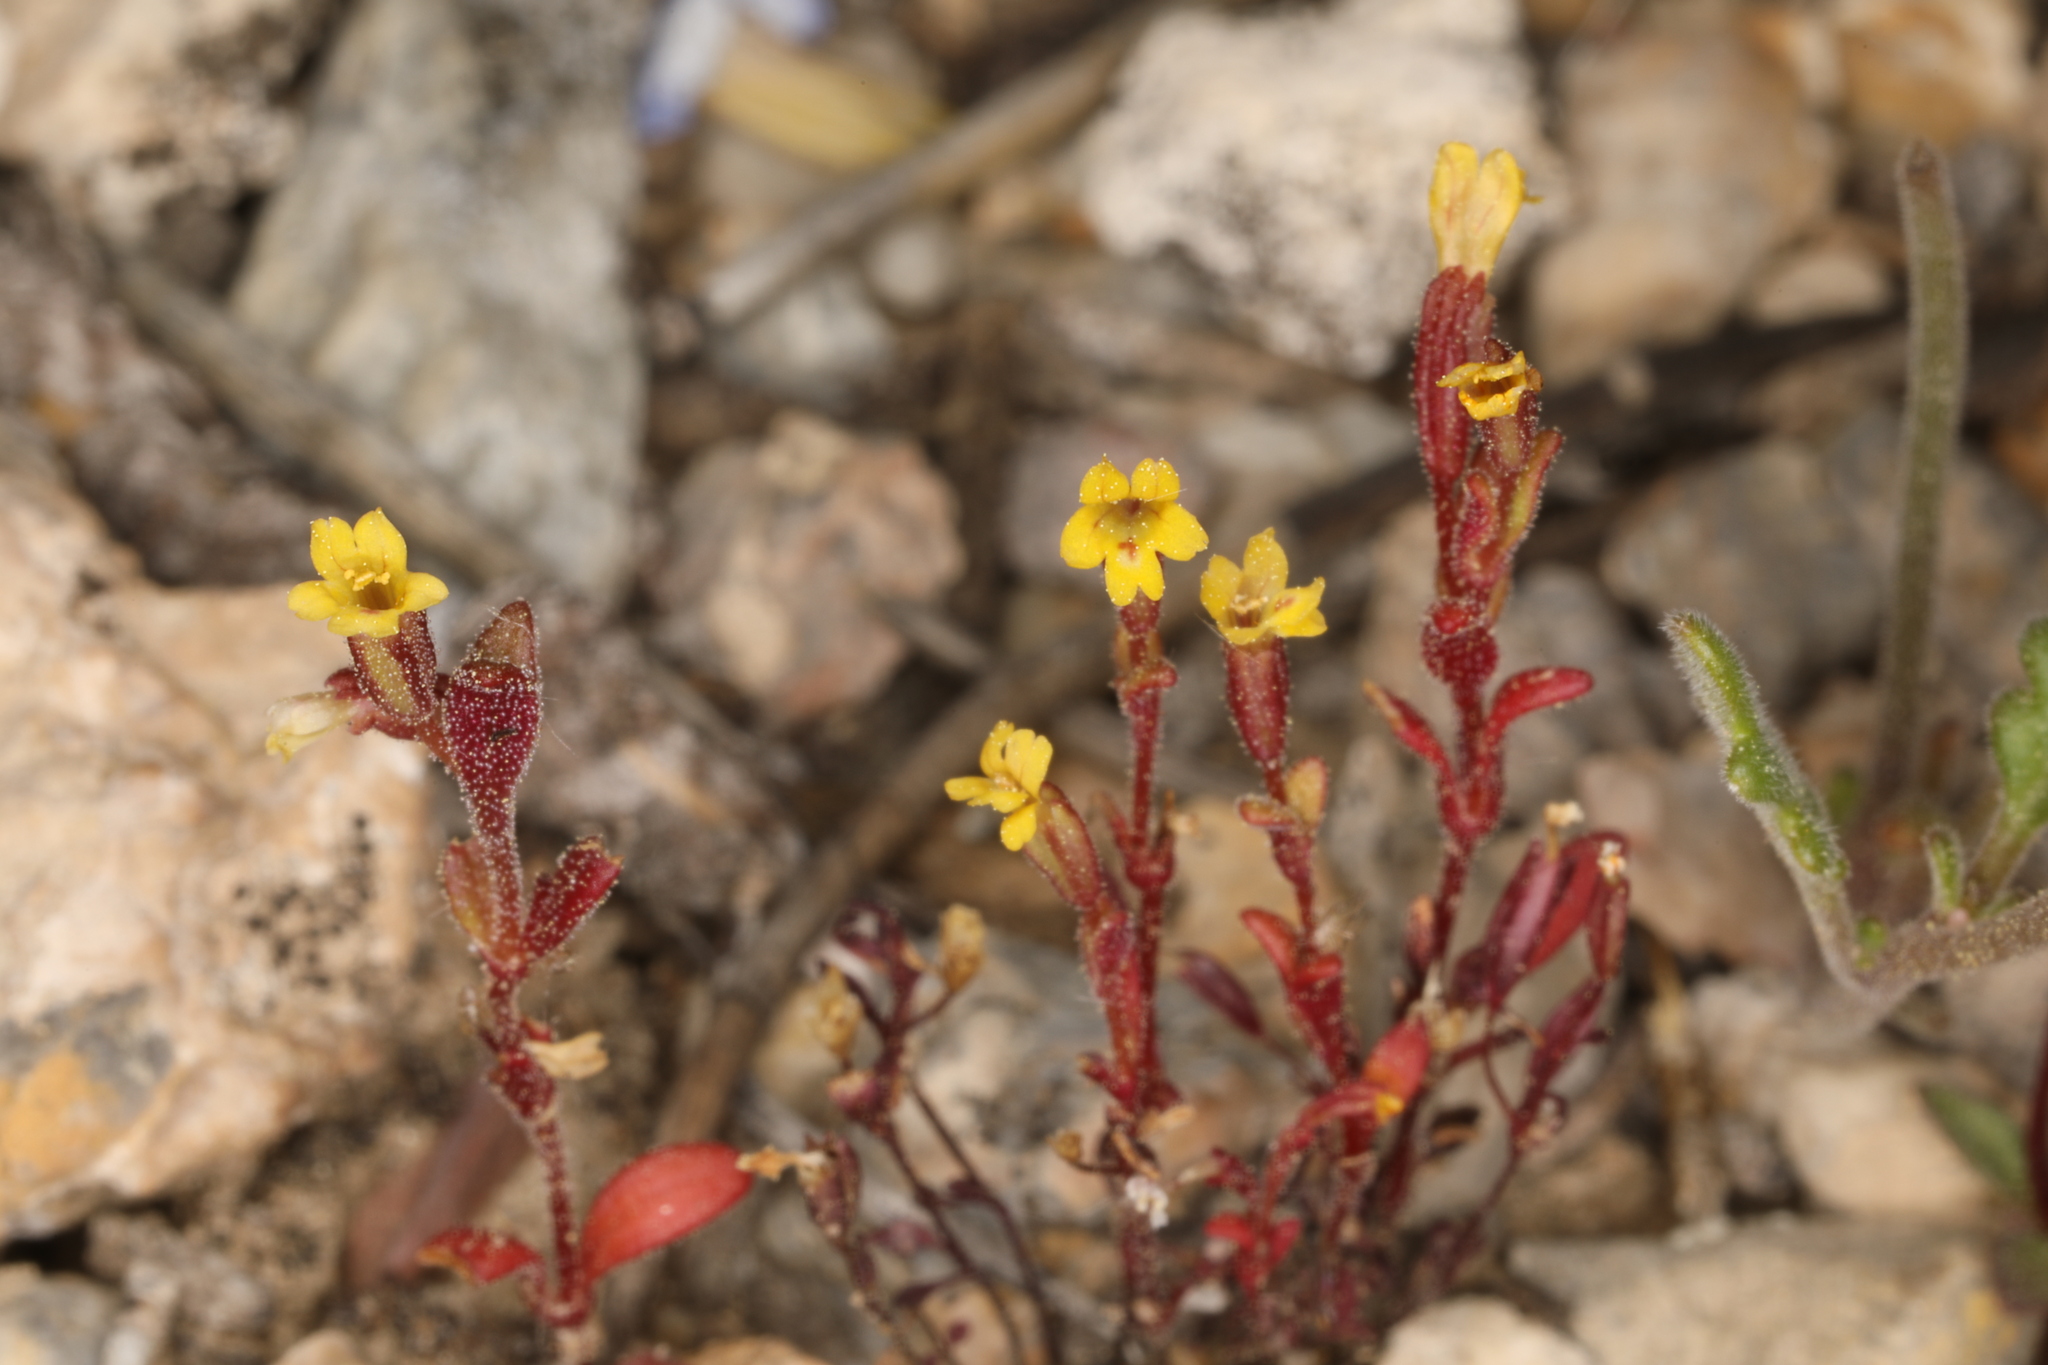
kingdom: Plantae
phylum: Tracheophyta
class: Magnoliopsida
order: Lamiales
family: Phrymaceae
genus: Erythranthe
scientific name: Erythranthe suksdorfii
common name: Suksdorf's monkeyflower
